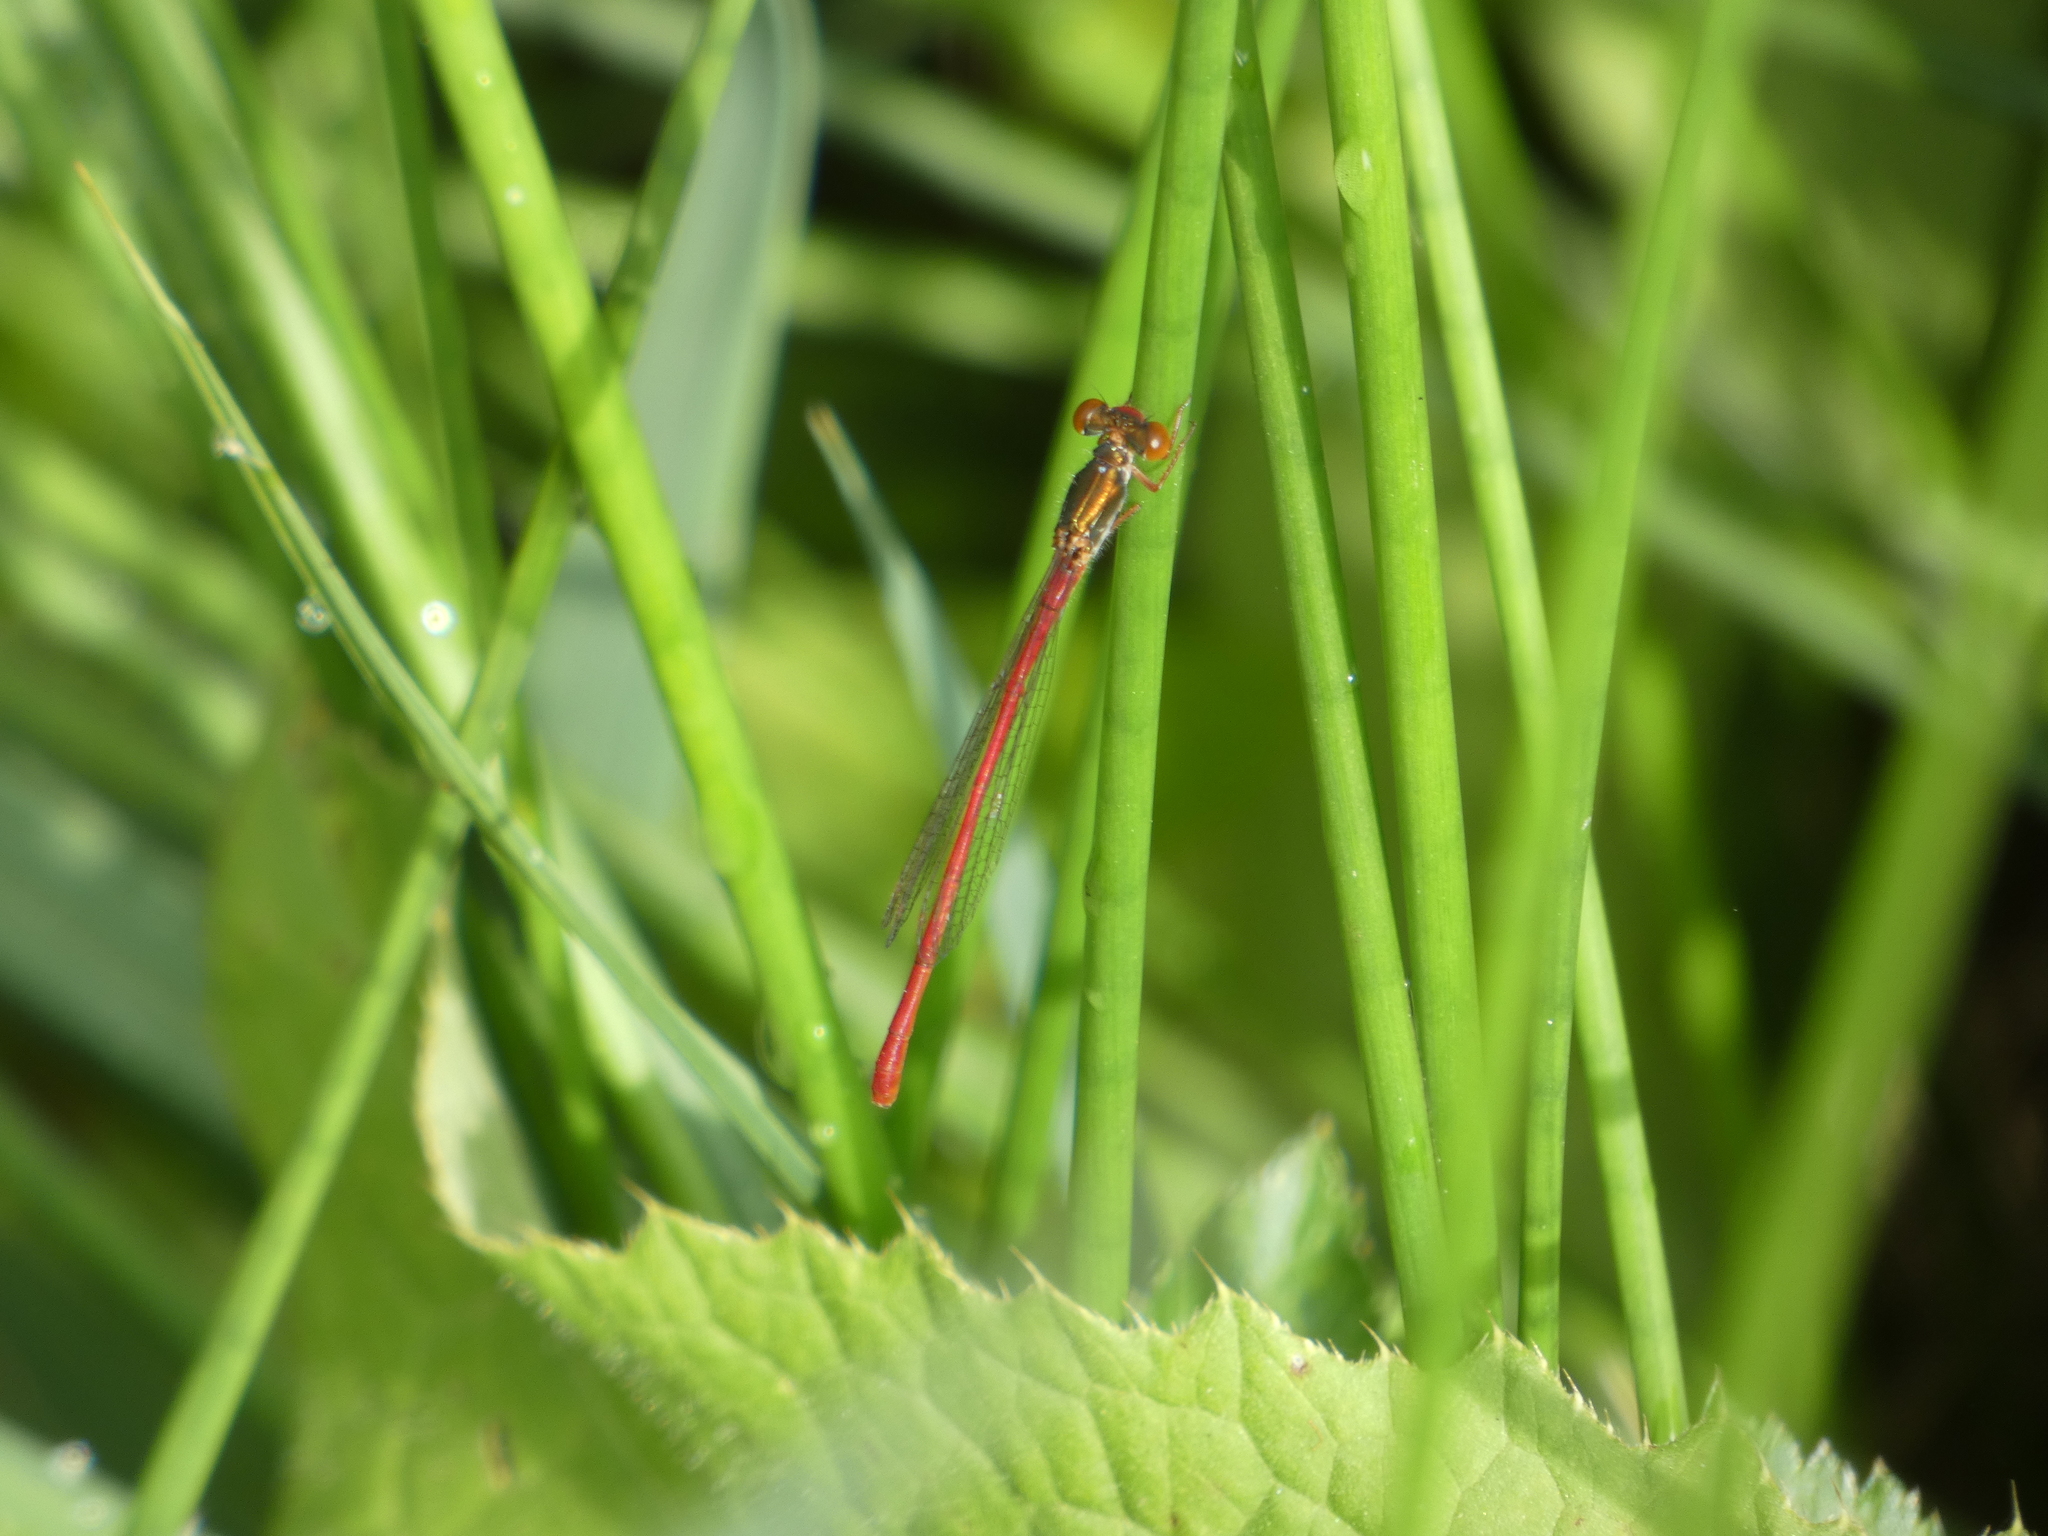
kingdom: Animalia
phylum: Arthropoda
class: Insecta
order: Odonata
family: Coenagrionidae
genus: Ceriagrion
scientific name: Ceriagrion tenellum
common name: Small red damselfly
